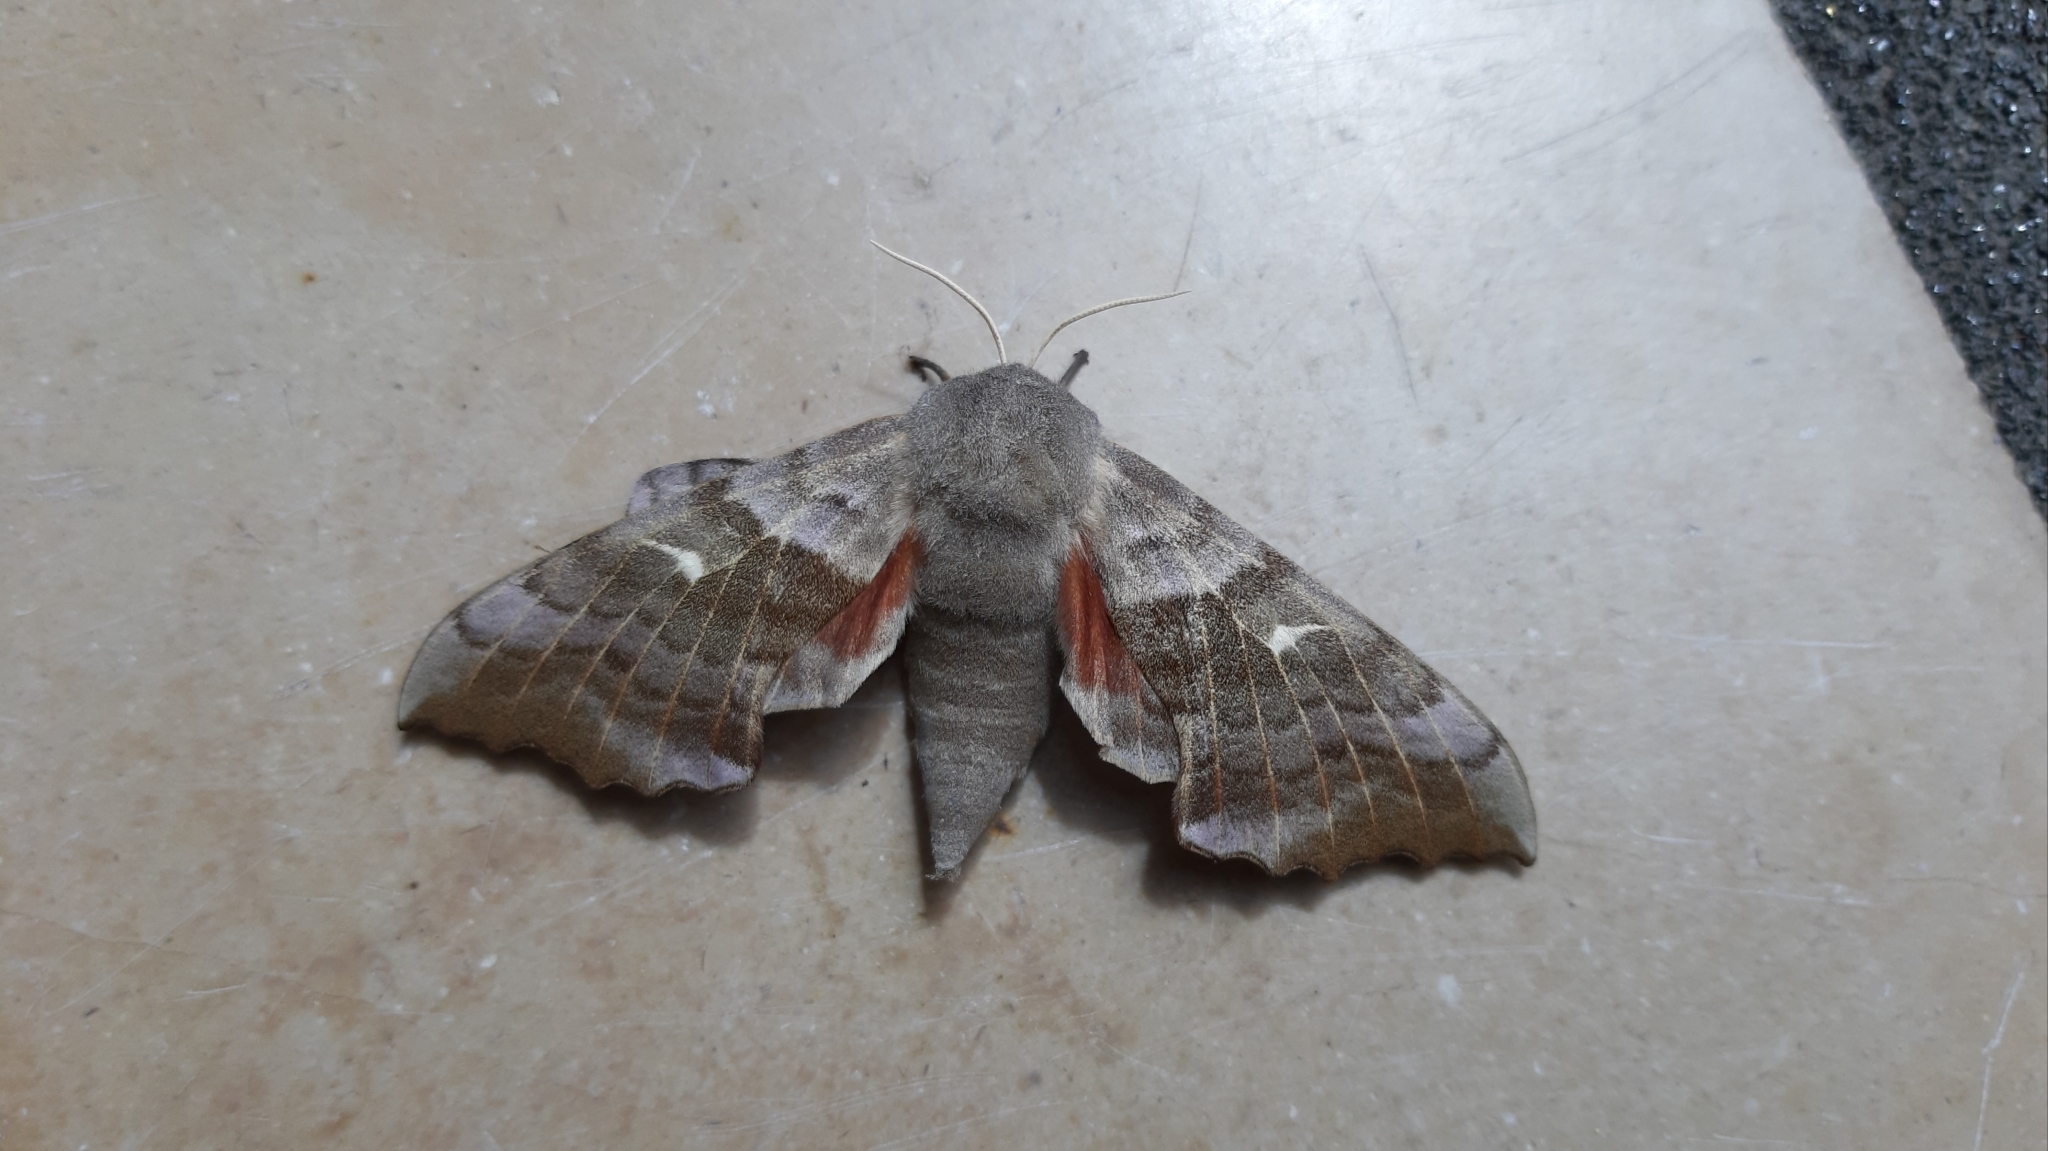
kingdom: Animalia
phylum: Arthropoda
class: Insecta
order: Lepidoptera
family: Sphingidae
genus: Laothoe
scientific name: Laothoe populi
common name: Poplar hawk-moth
